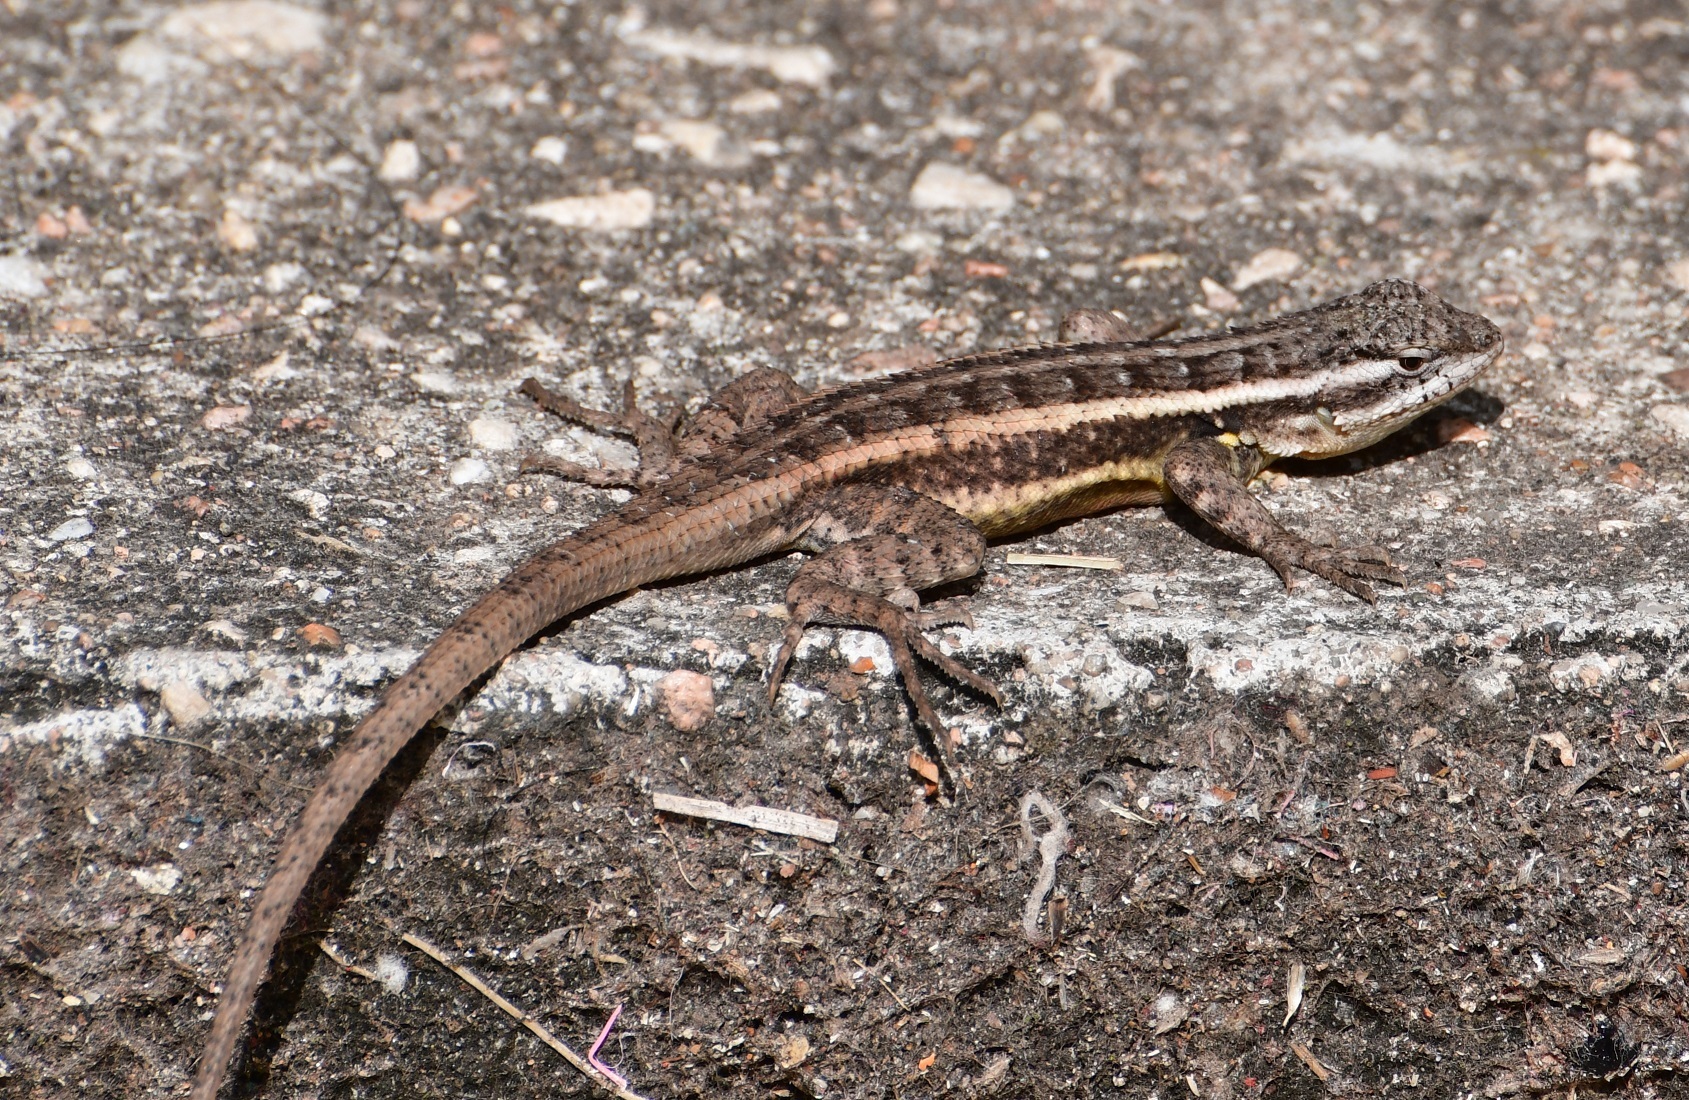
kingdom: Animalia
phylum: Chordata
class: Squamata
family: Phrynosomatidae
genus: Sceloporus
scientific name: Sceloporus variabilis
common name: Rosebelly lizard
